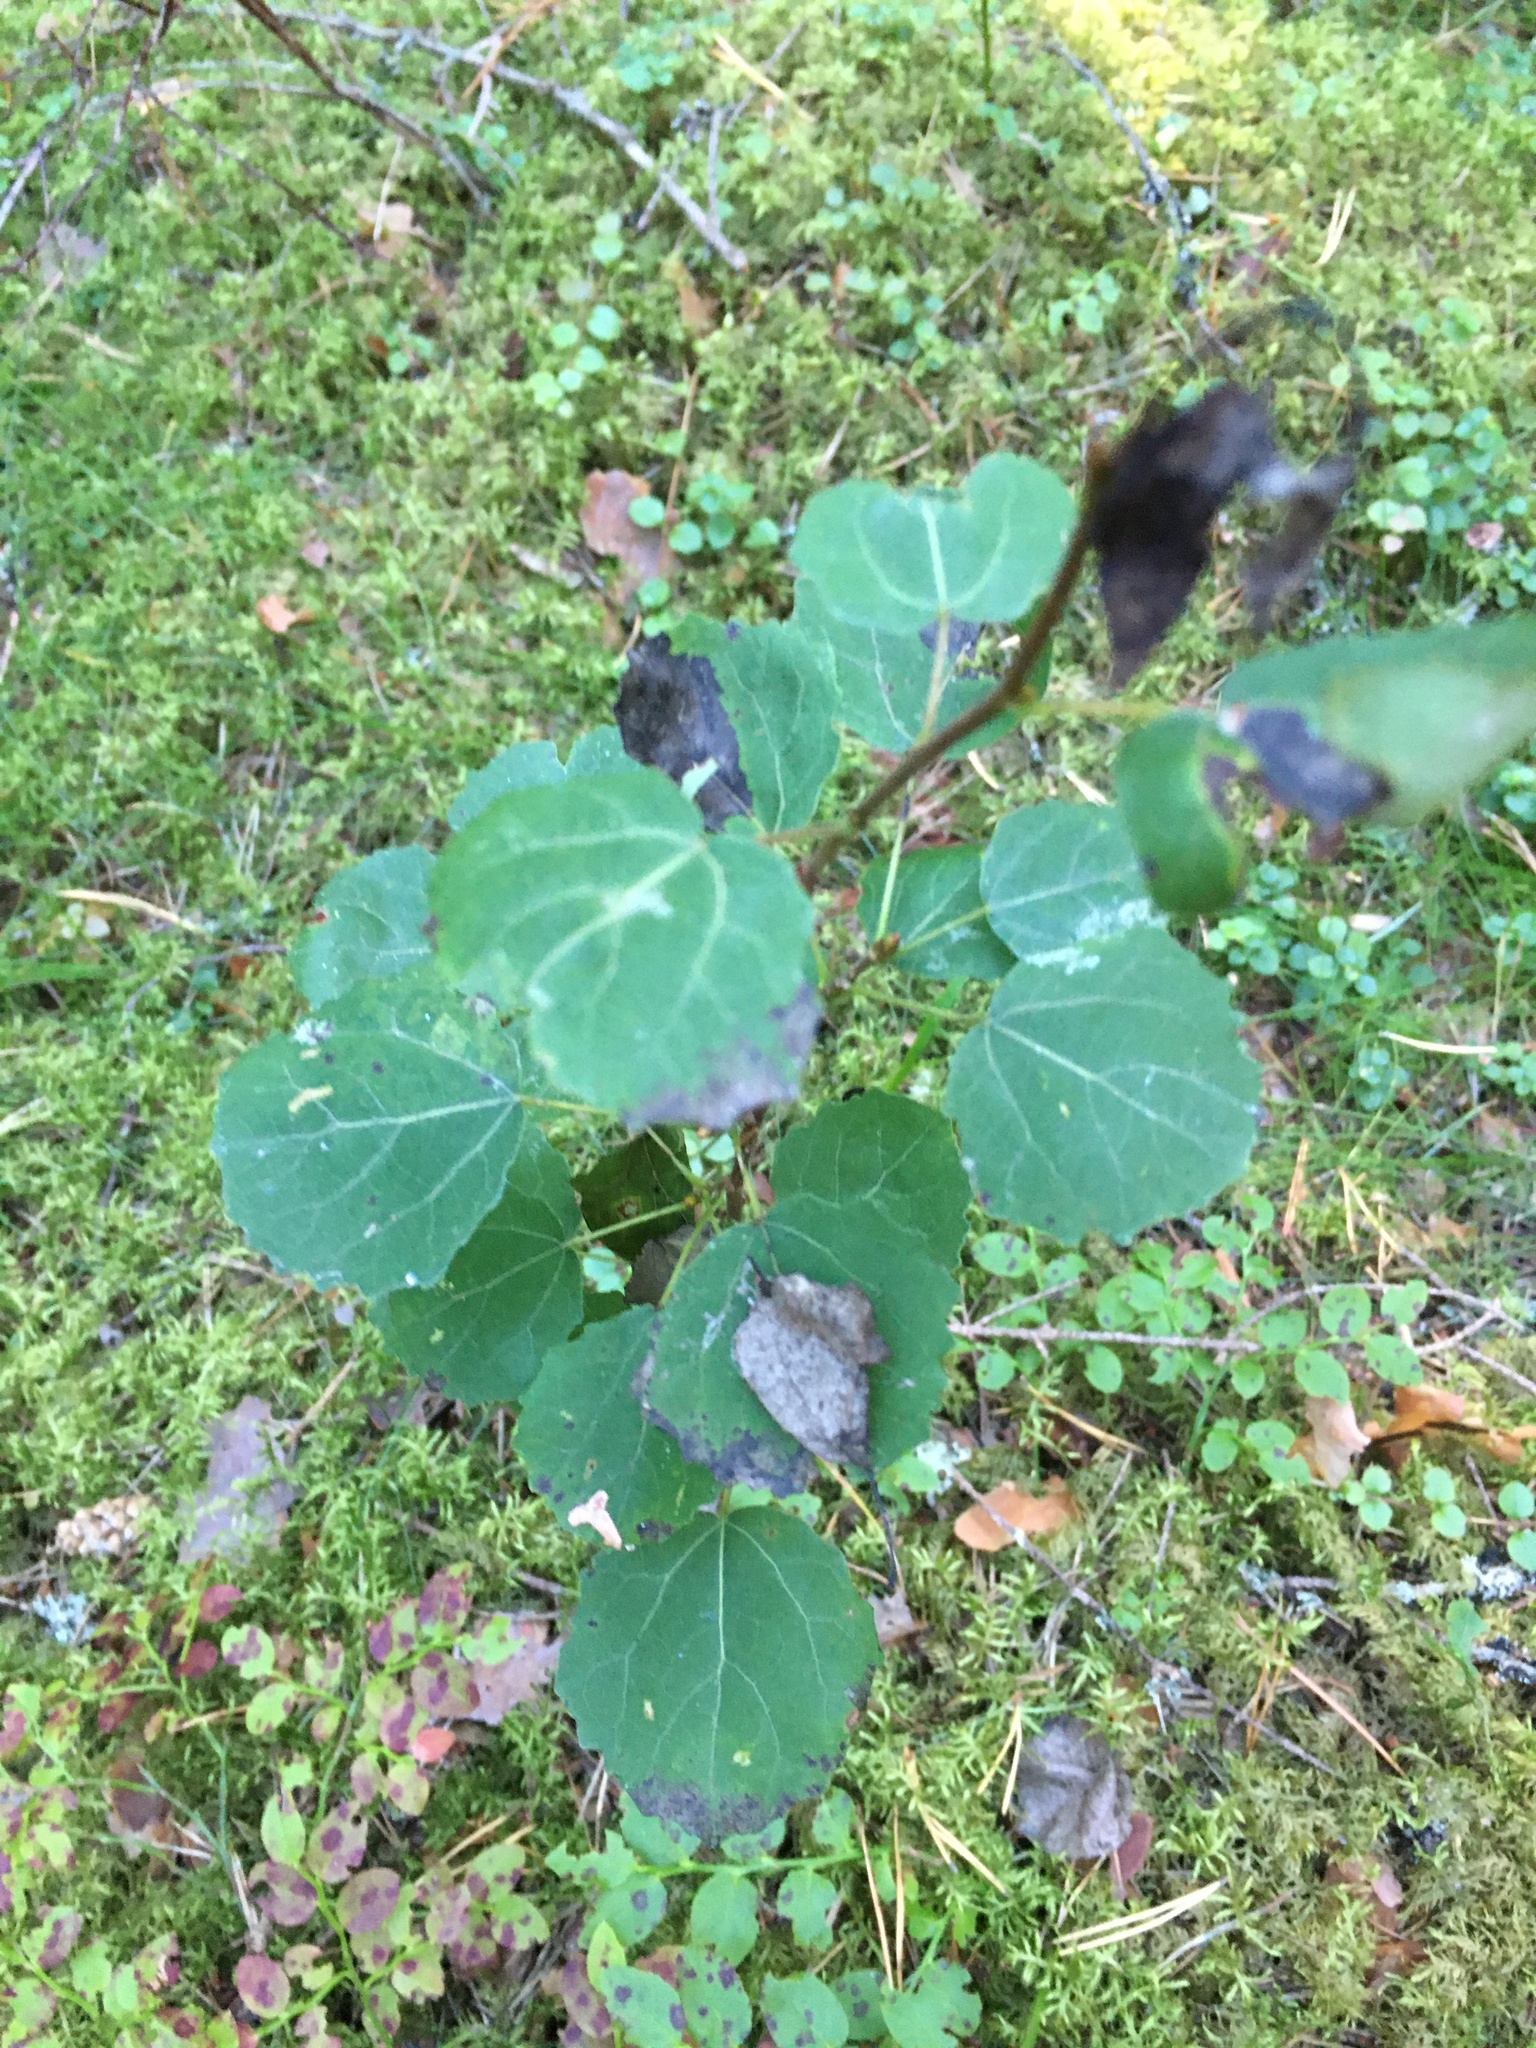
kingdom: Plantae
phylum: Tracheophyta
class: Magnoliopsida
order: Malpighiales
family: Salicaceae
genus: Populus
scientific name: Populus tremula
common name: European aspen
